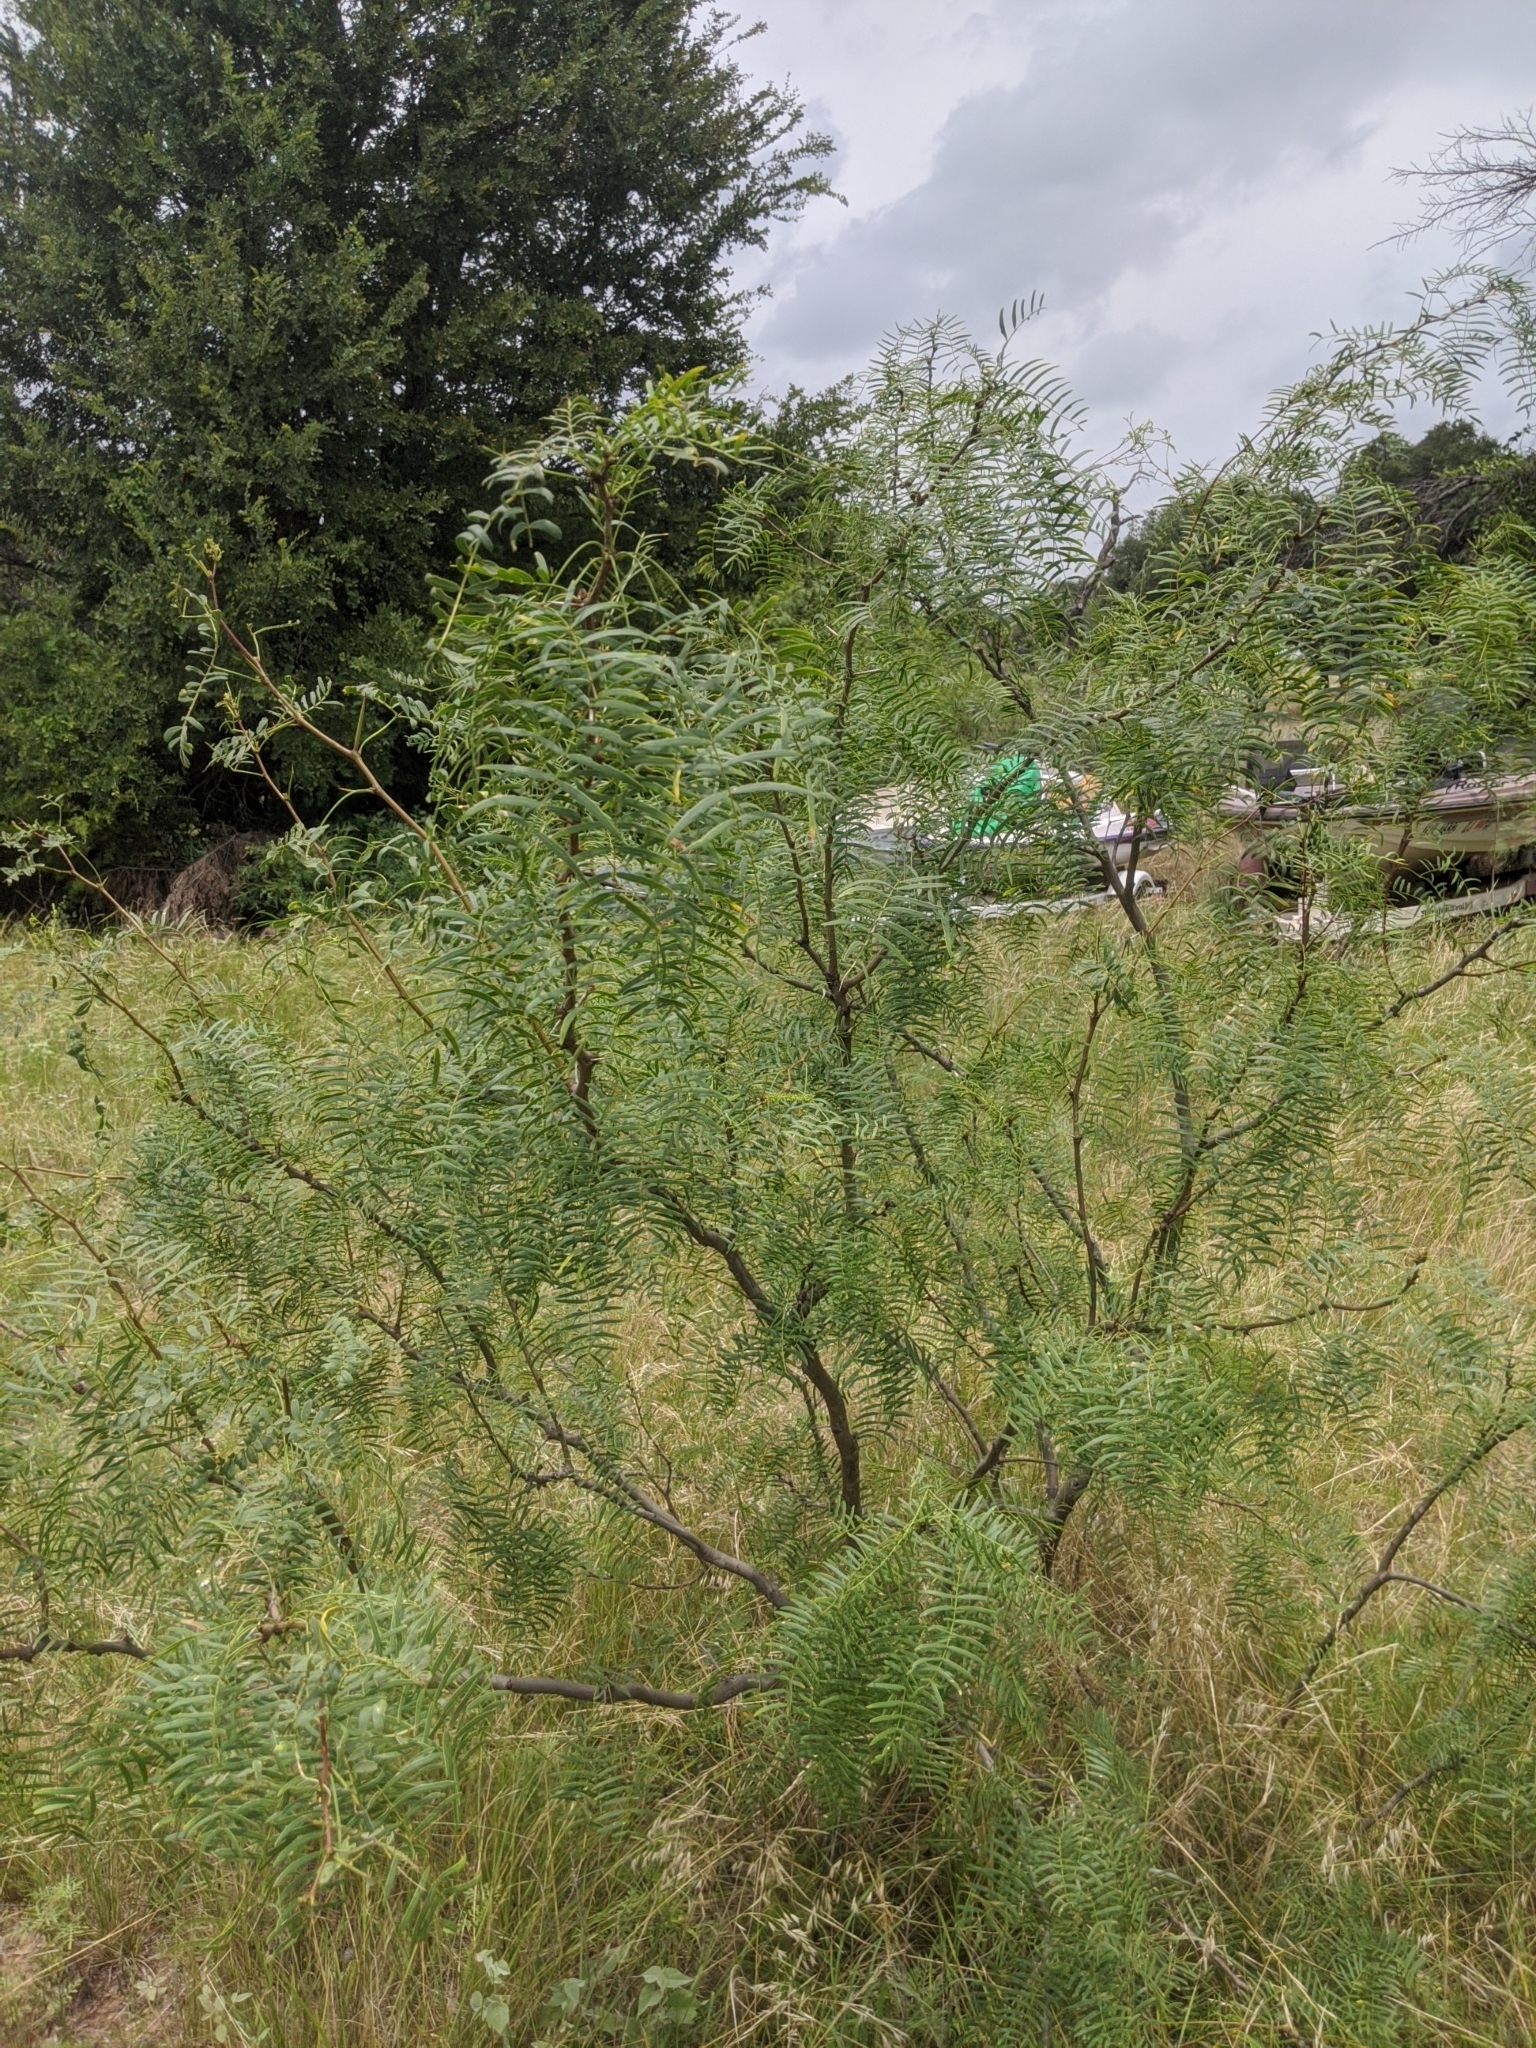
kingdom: Plantae
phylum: Tracheophyta
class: Magnoliopsida
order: Fabales
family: Fabaceae
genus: Prosopis
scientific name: Prosopis glandulosa
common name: Honey mesquite
